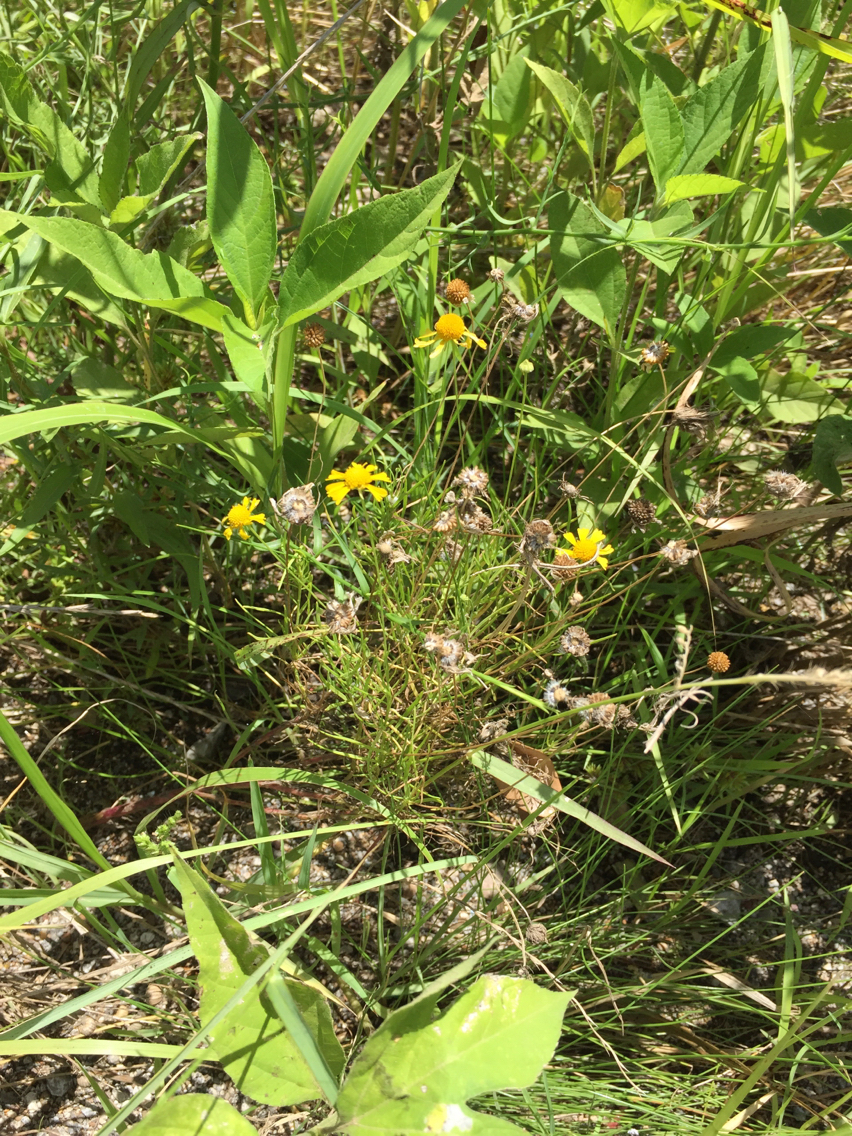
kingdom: Plantae
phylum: Tracheophyta
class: Magnoliopsida
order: Asterales
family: Asteraceae
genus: Helenium
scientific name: Helenium amarum
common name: Bitter sneezeweed
